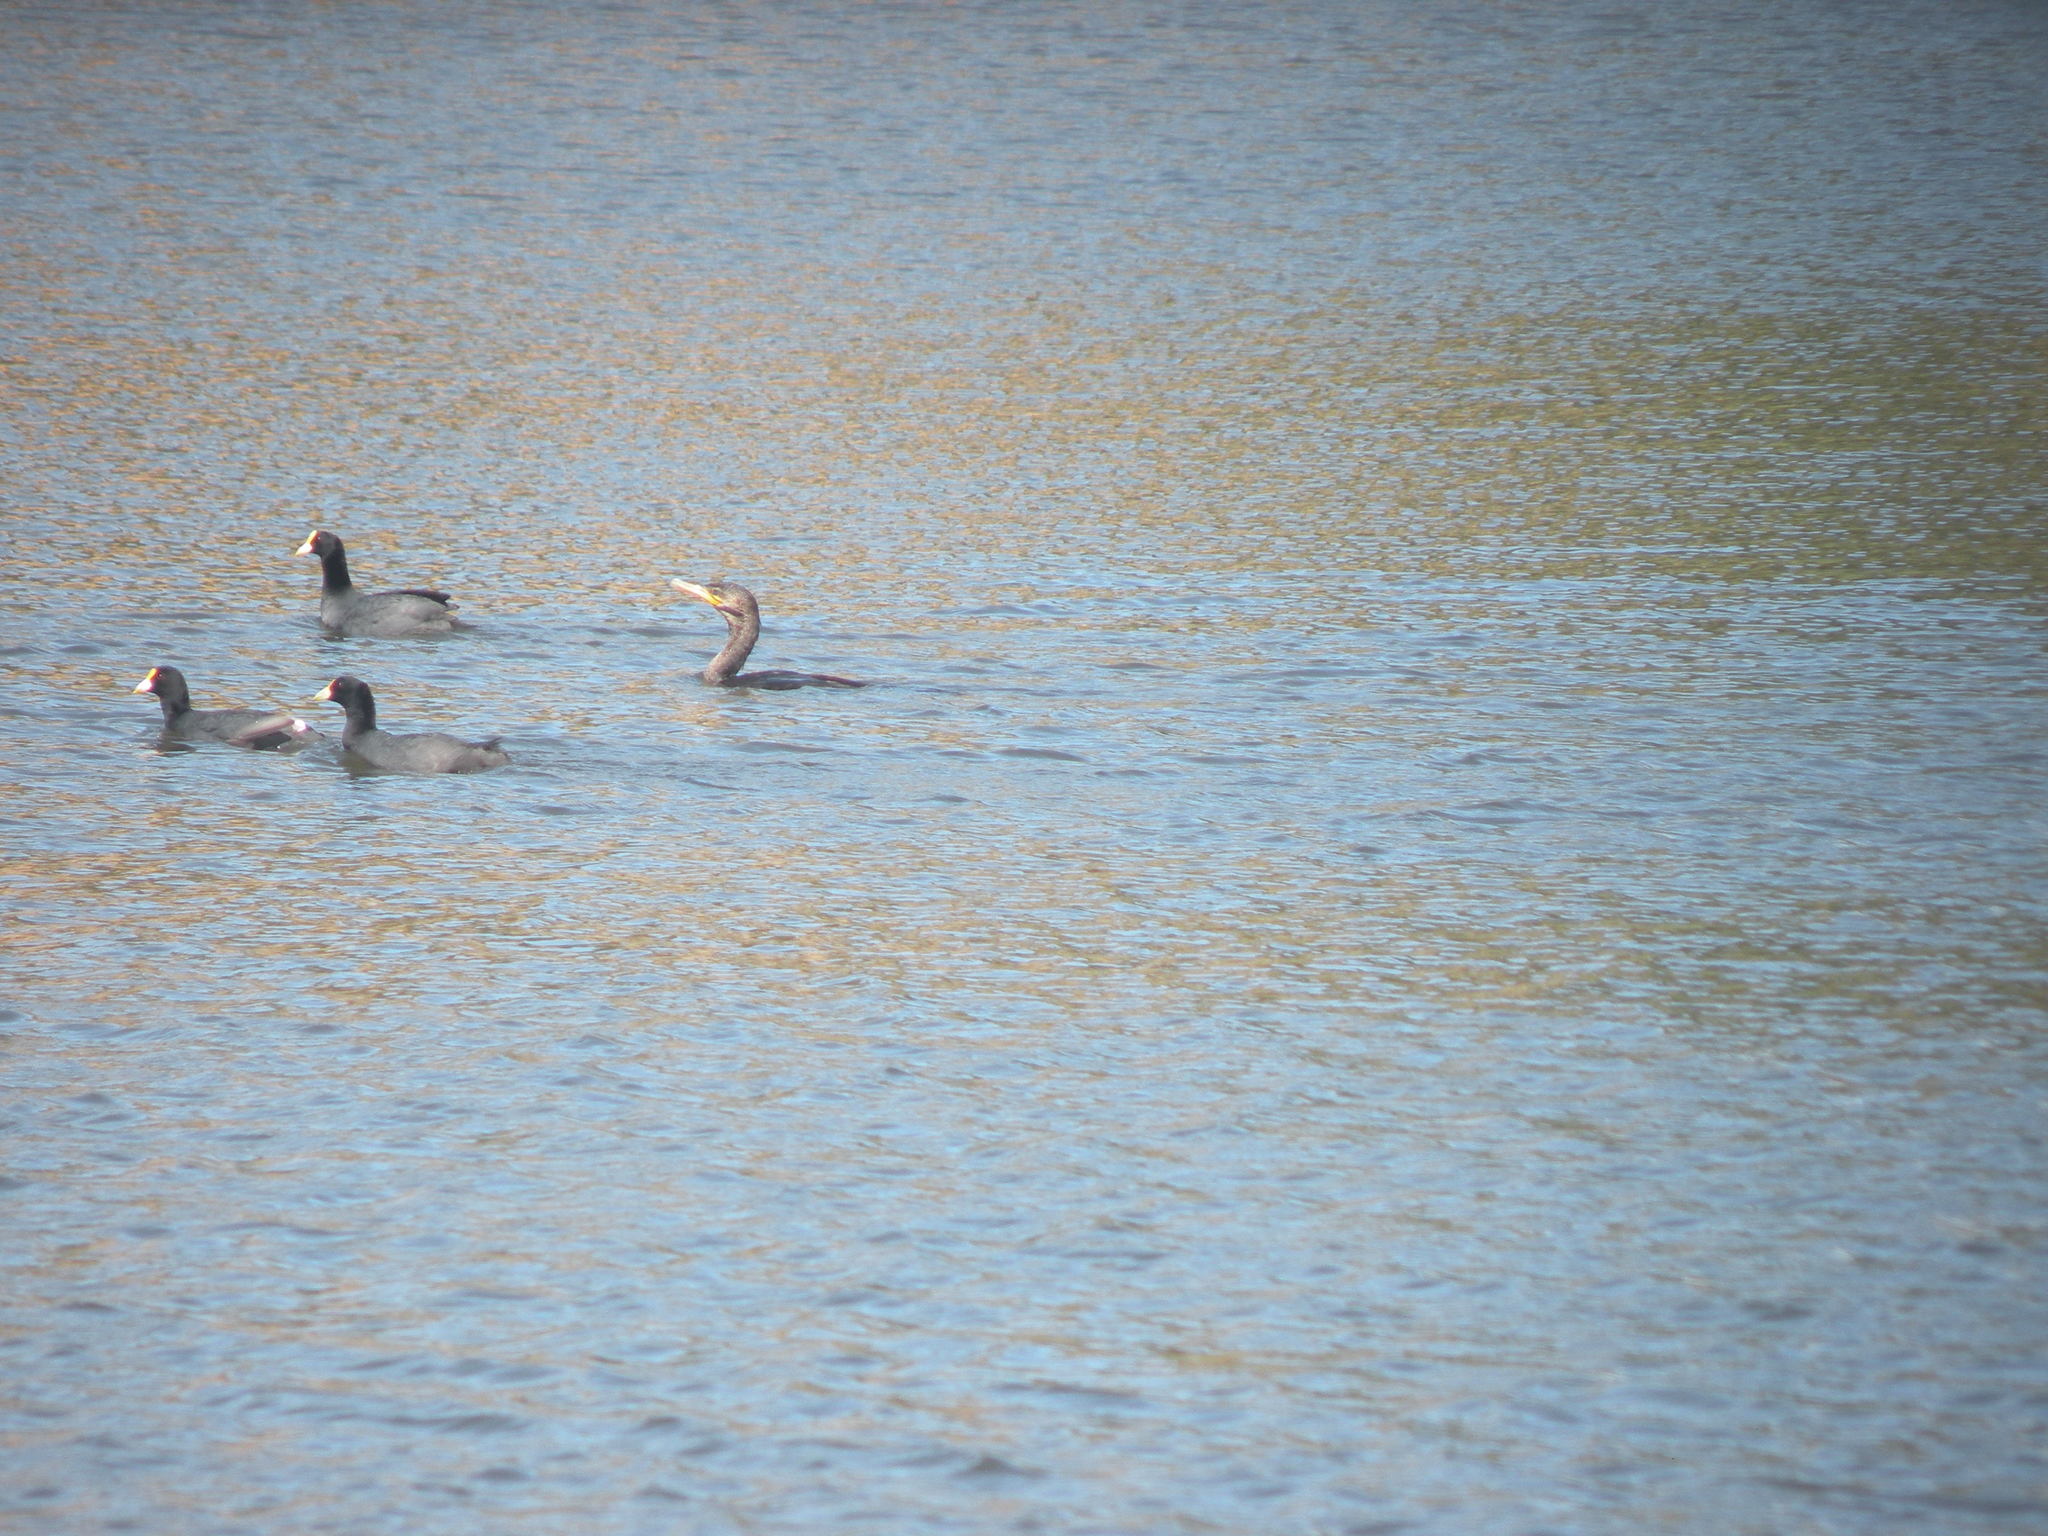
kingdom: Animalia
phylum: Chordata
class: Aves
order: Suliformes
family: Phalacrocoracidae
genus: Phalacrocorax
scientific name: Phalacrocorax brasilianus
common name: Neotropic cormorant
